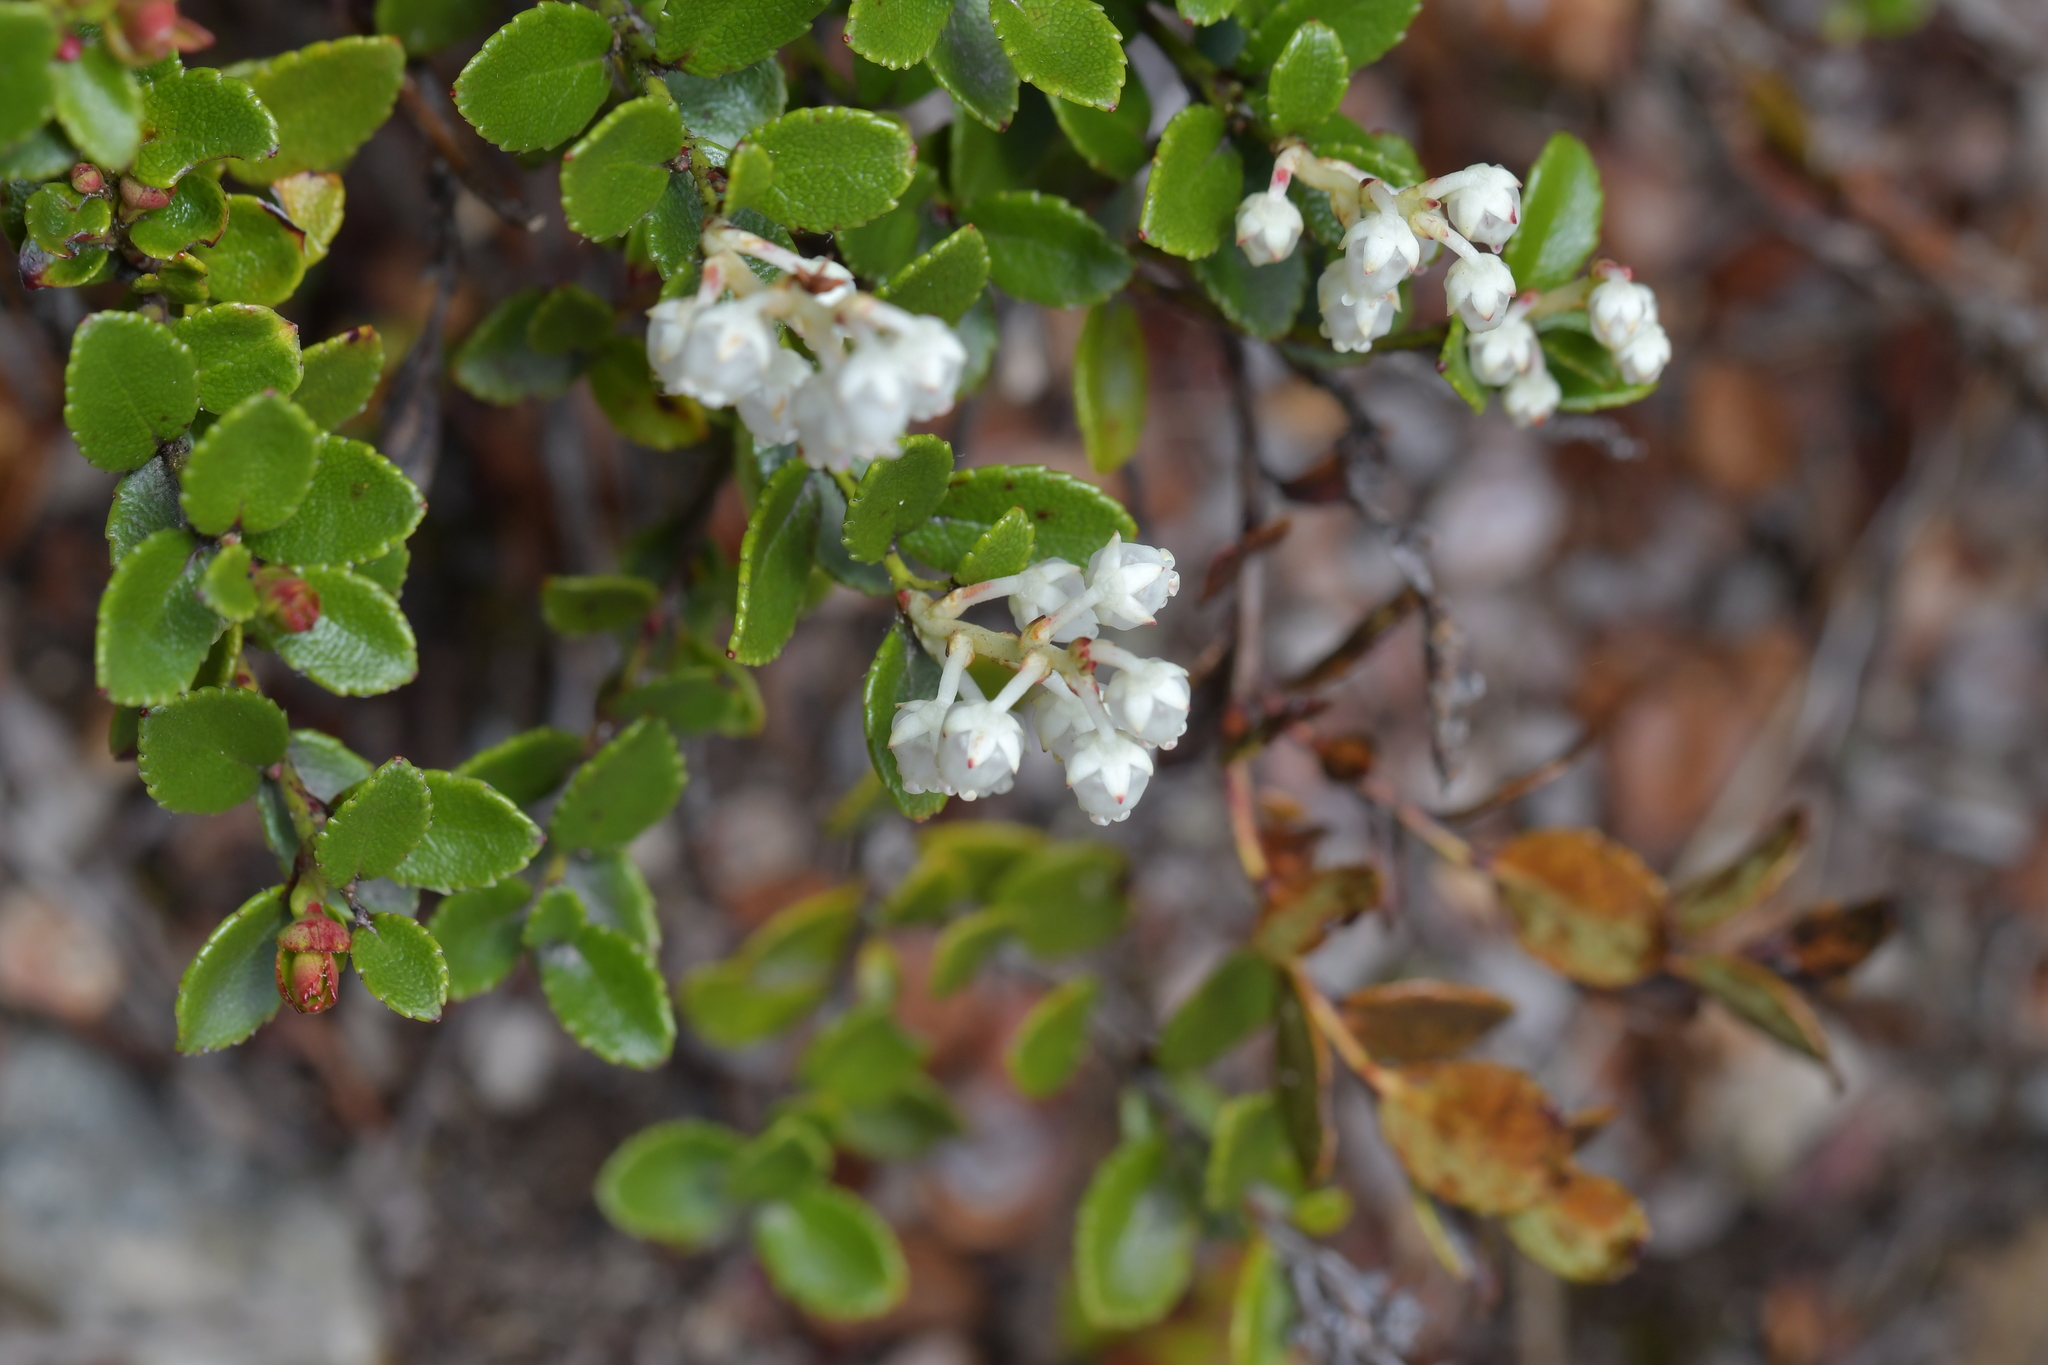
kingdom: Plantae
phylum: Tracheophyta
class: Magnoliopsida
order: Ericales
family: Ericaceae
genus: Gaultheria
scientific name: Gaultheria crassa
